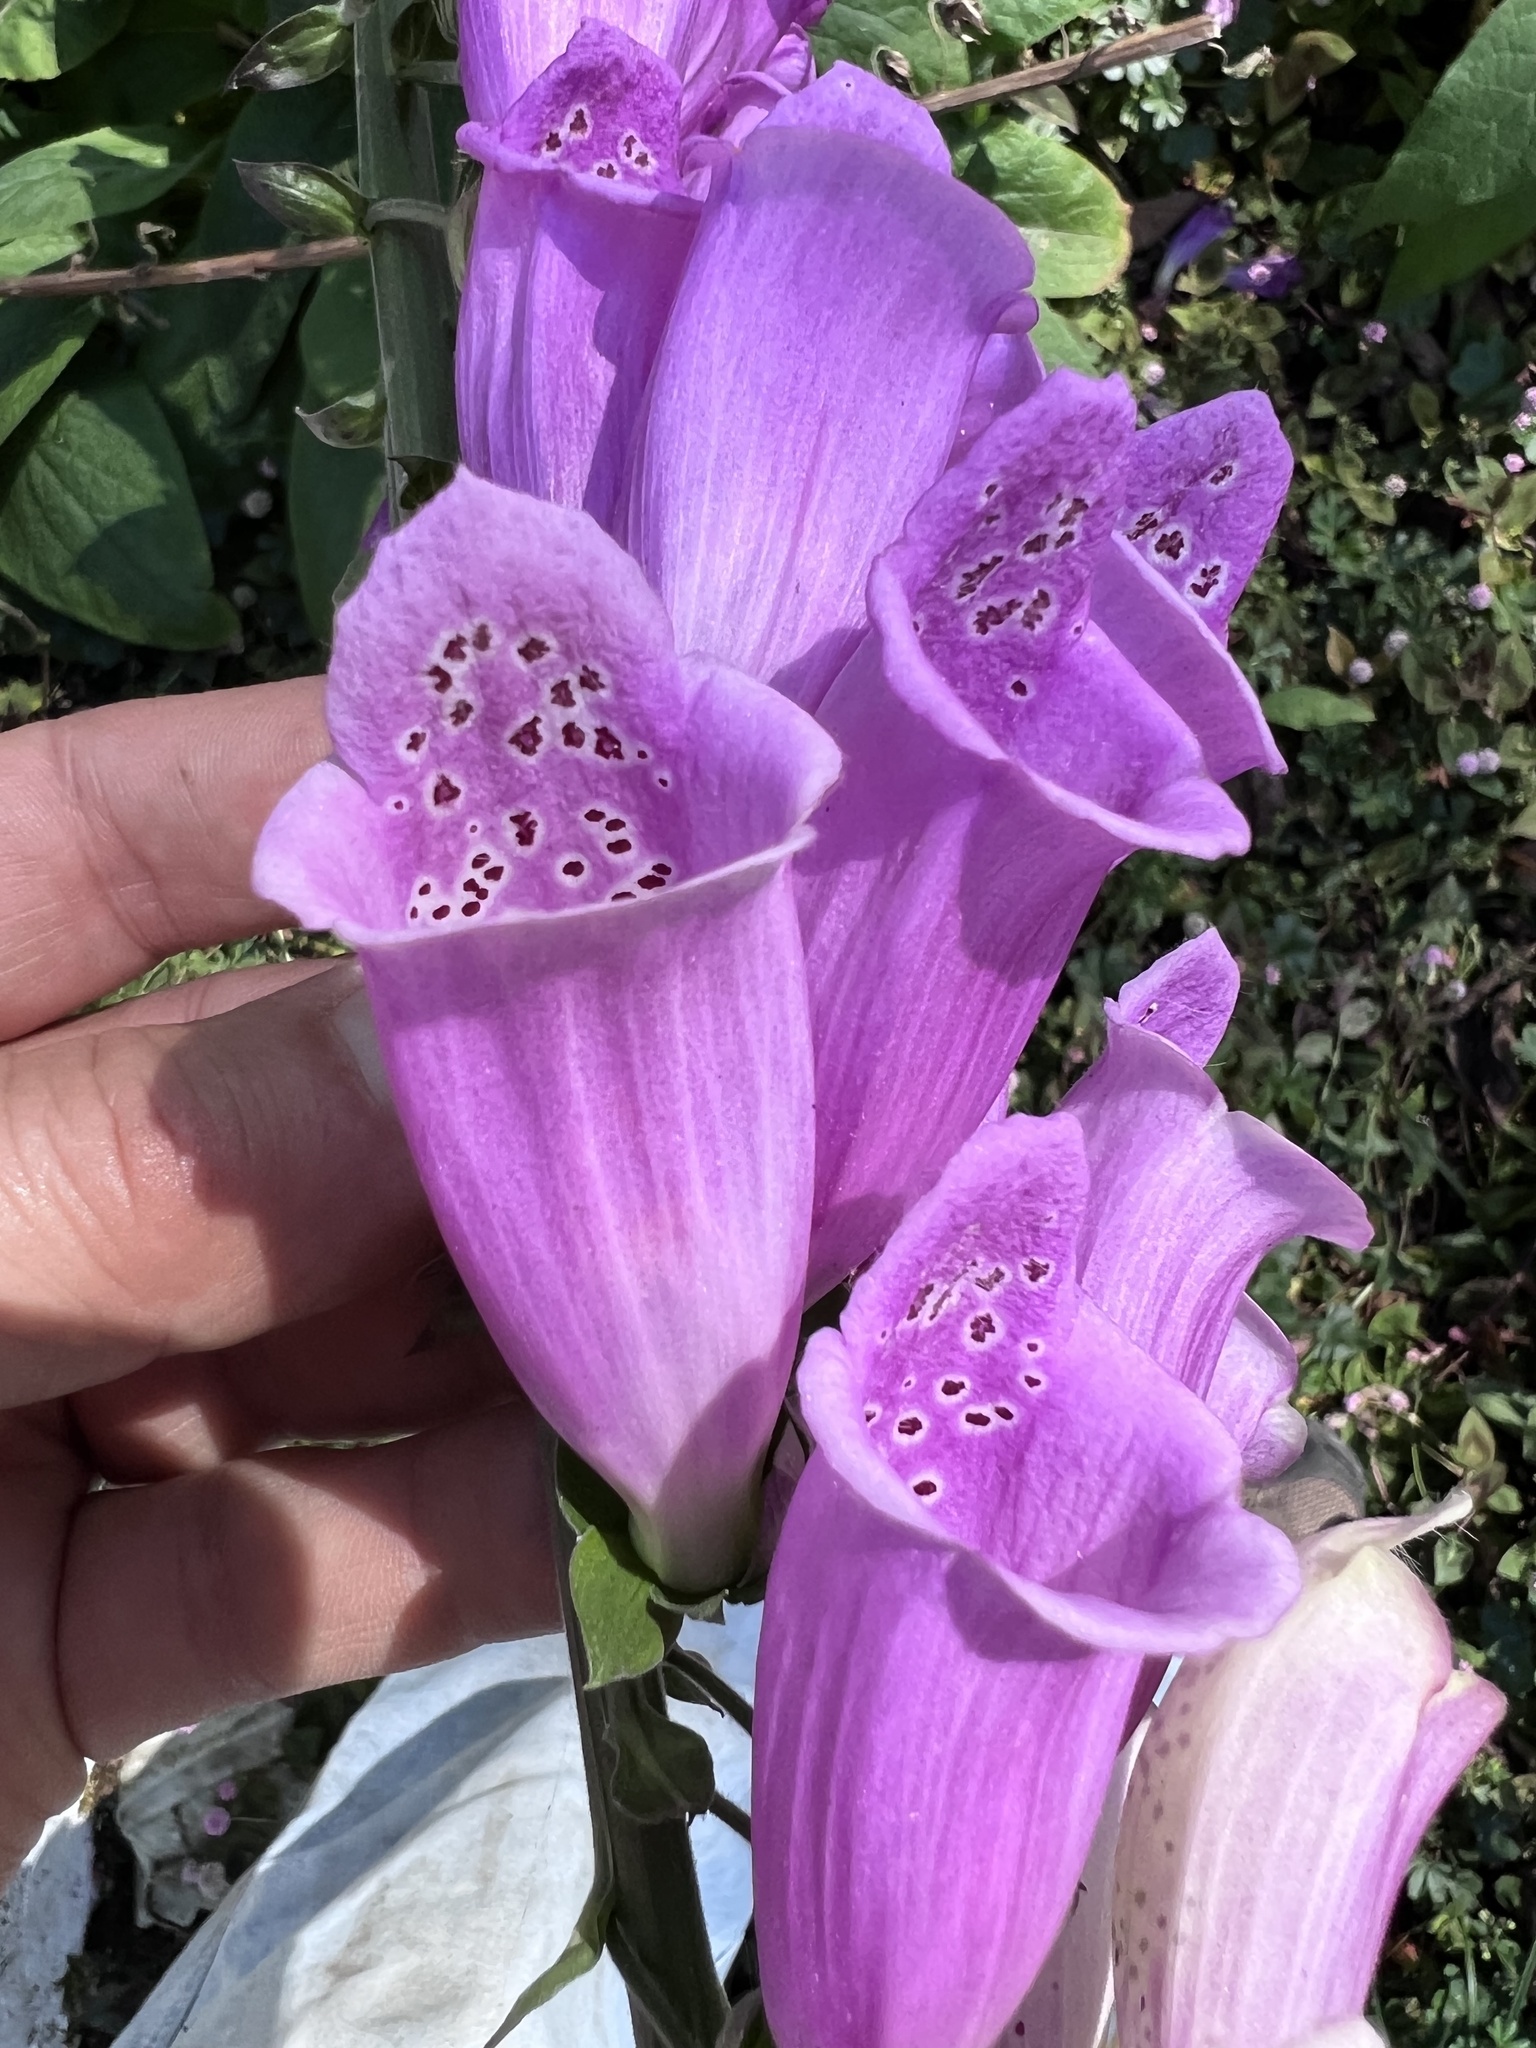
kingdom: Plantae
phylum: Tracheophyta
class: Magnoliopsida
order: Lamiales
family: Plantaginaceae
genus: Digitalis
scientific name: Digitalis purpurea
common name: Foxglove
